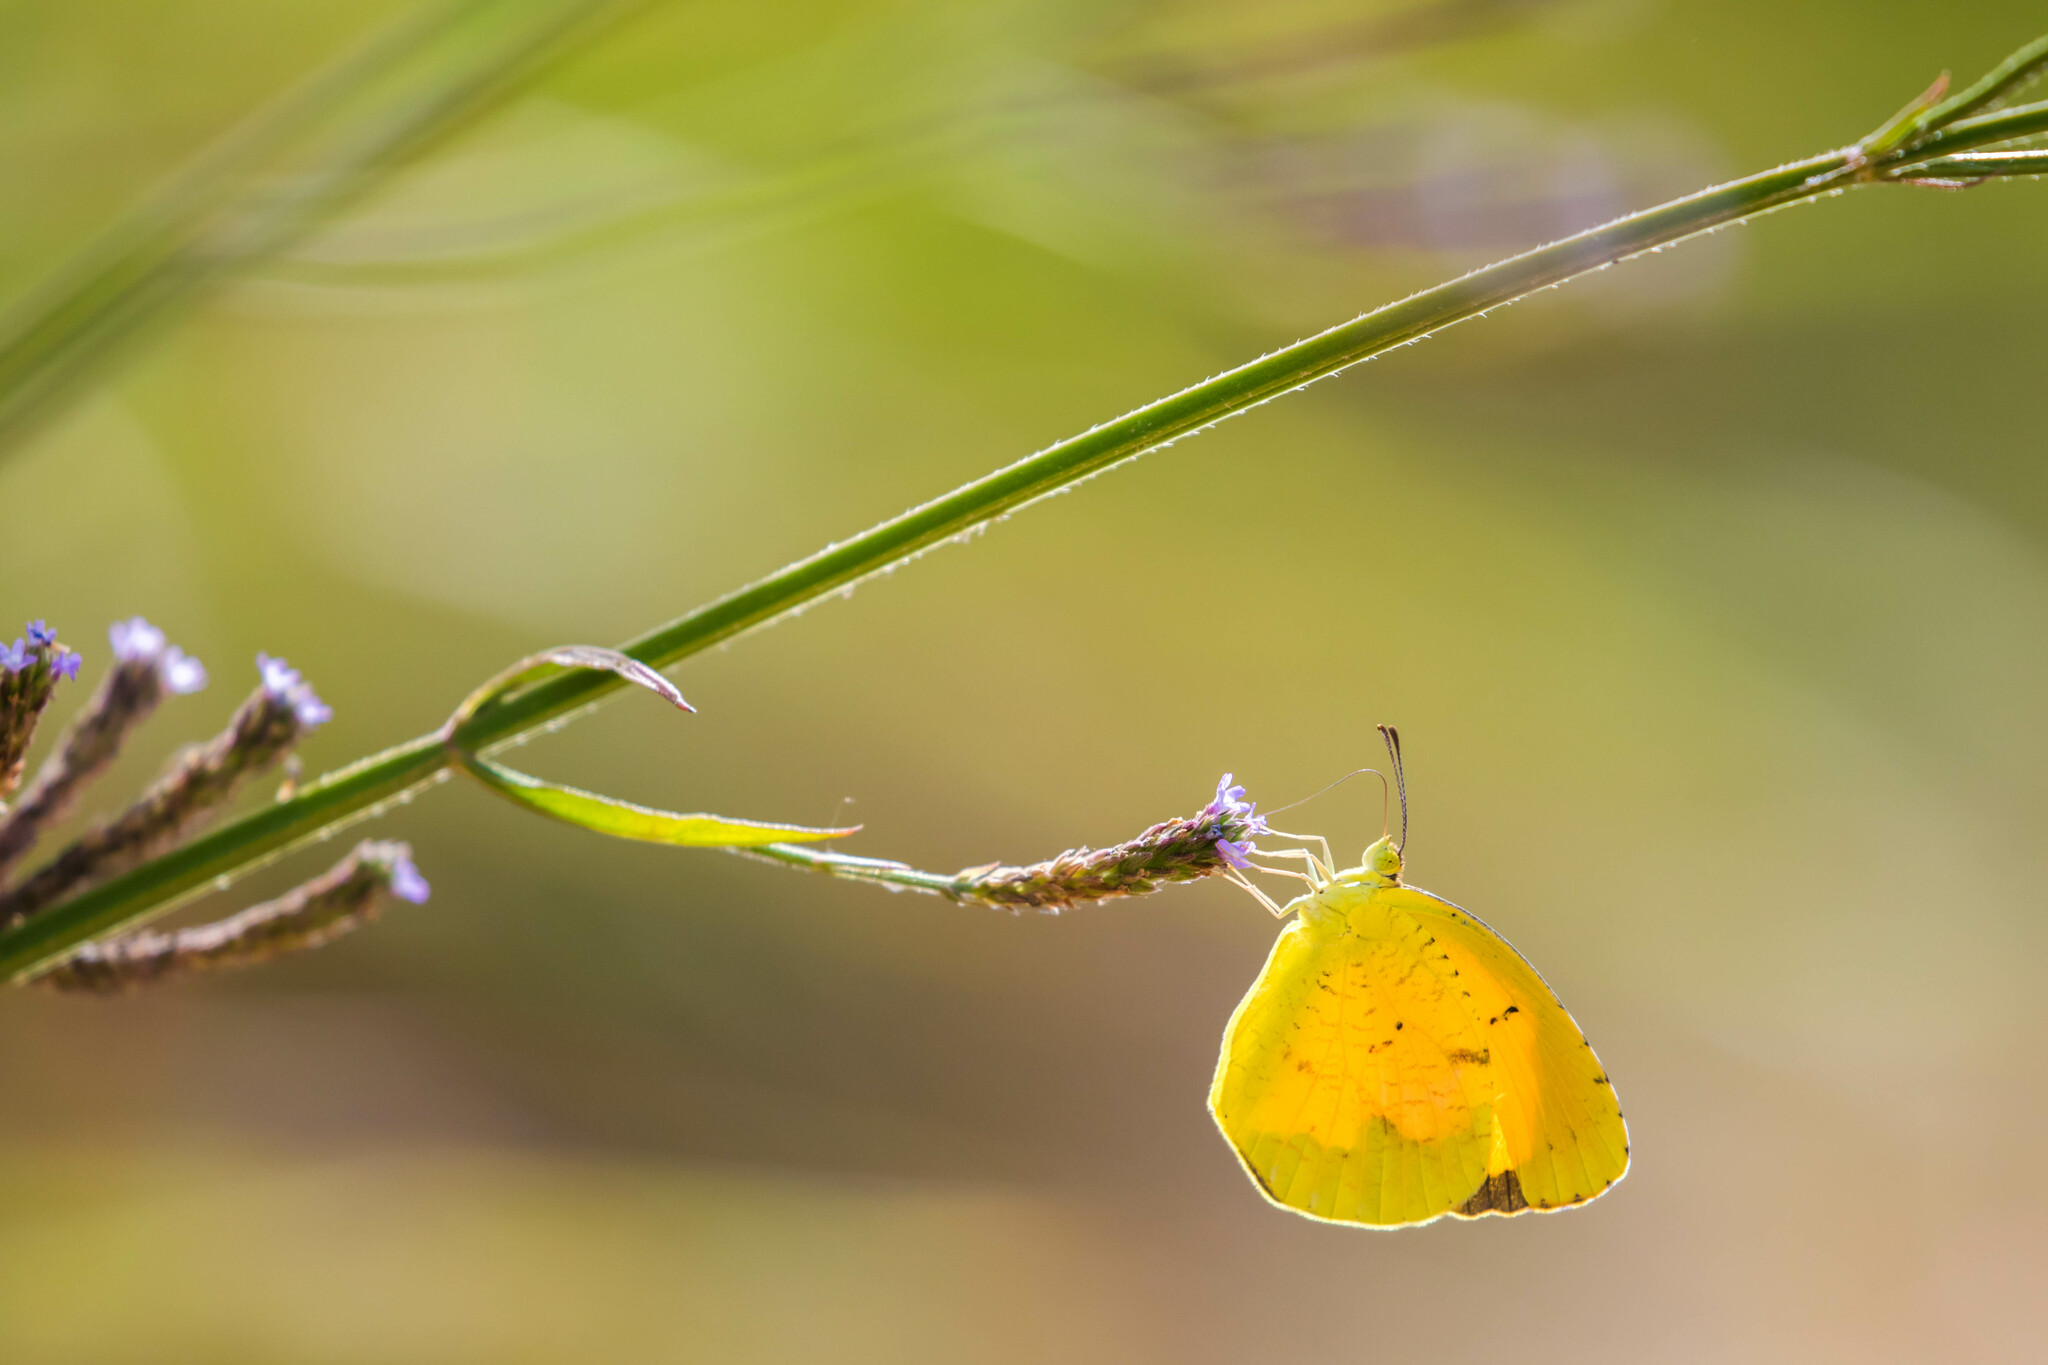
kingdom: Animalia
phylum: Arthropoda
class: Insecta
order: Lepidoptera
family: Pieridae
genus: Abaeis
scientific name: Abaeis nicippe
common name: Sleepy orange
